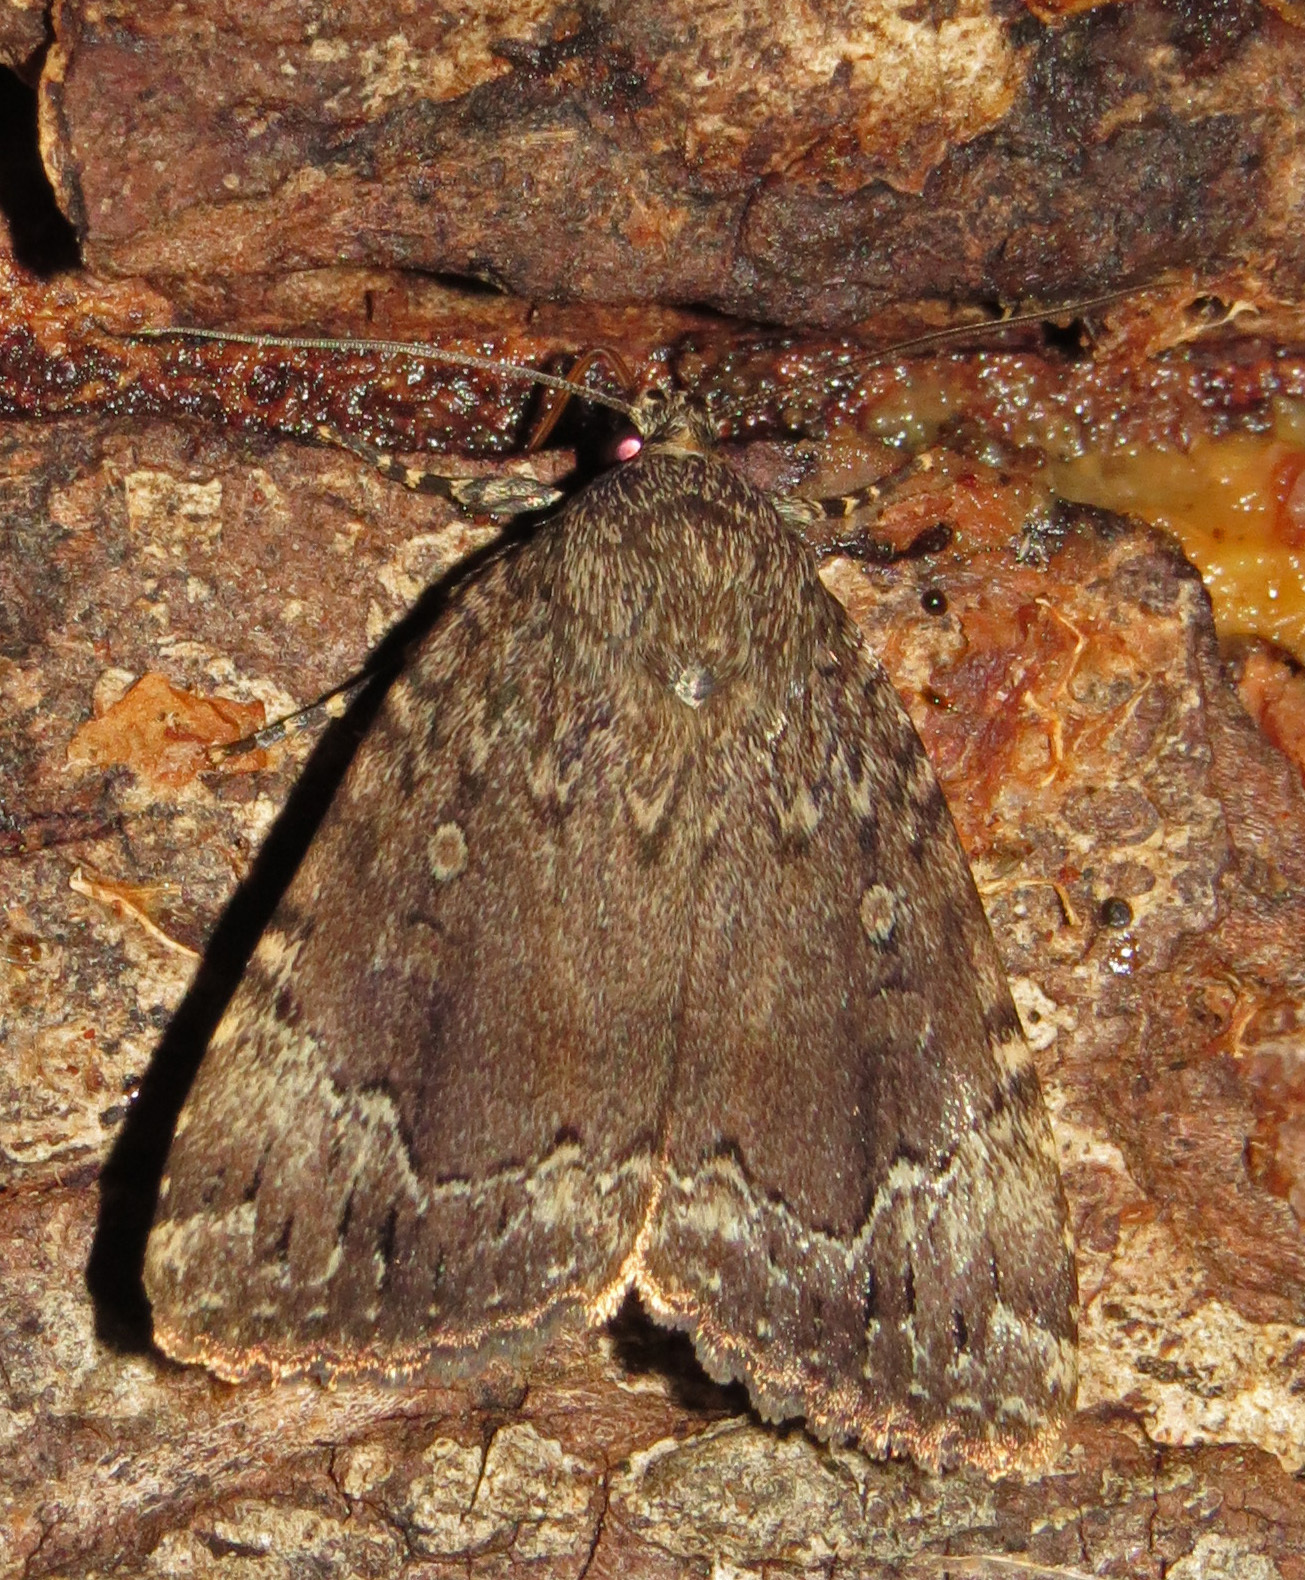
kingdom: Animalia
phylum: Arthropoda
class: Insecta
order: Lepidoptera
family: Noctuidae
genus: Amphipyra
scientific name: Amphipyra pyramidoides
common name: American copper underwing
